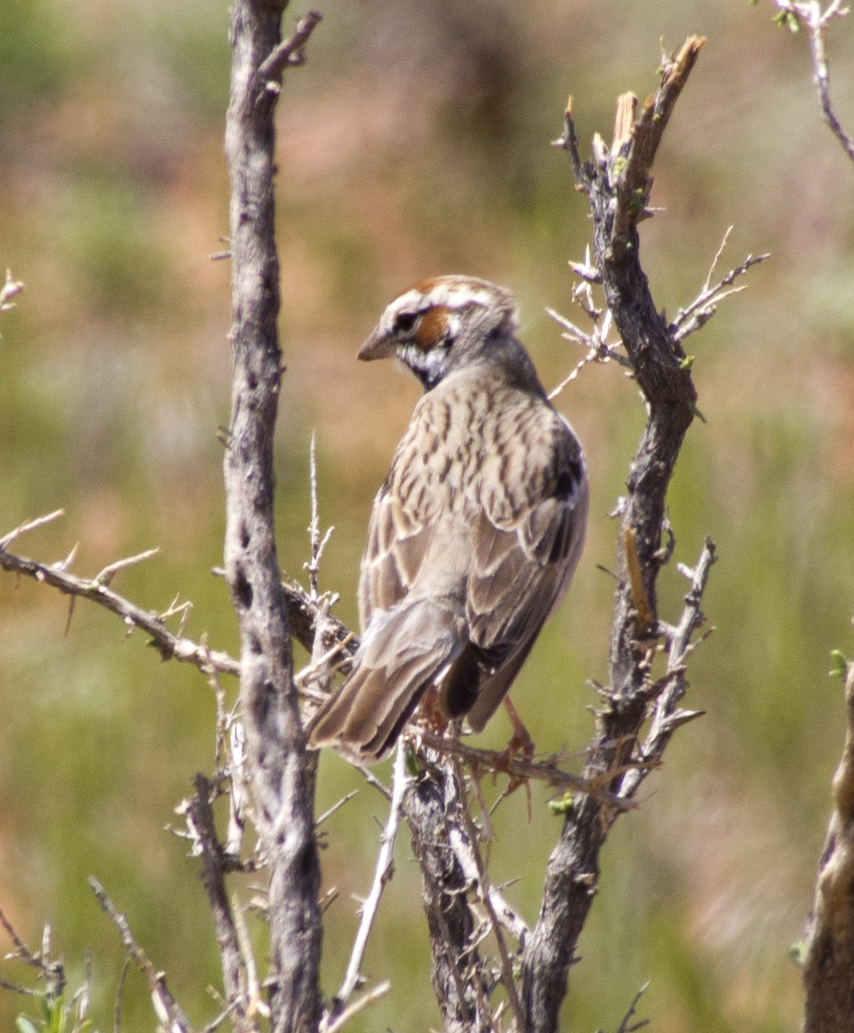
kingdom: Animalia
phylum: Chordata
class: Aves
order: Passeriformes
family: Passerellidae
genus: Chondestes
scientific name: Chondestes grammacus
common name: Lark sparrow
